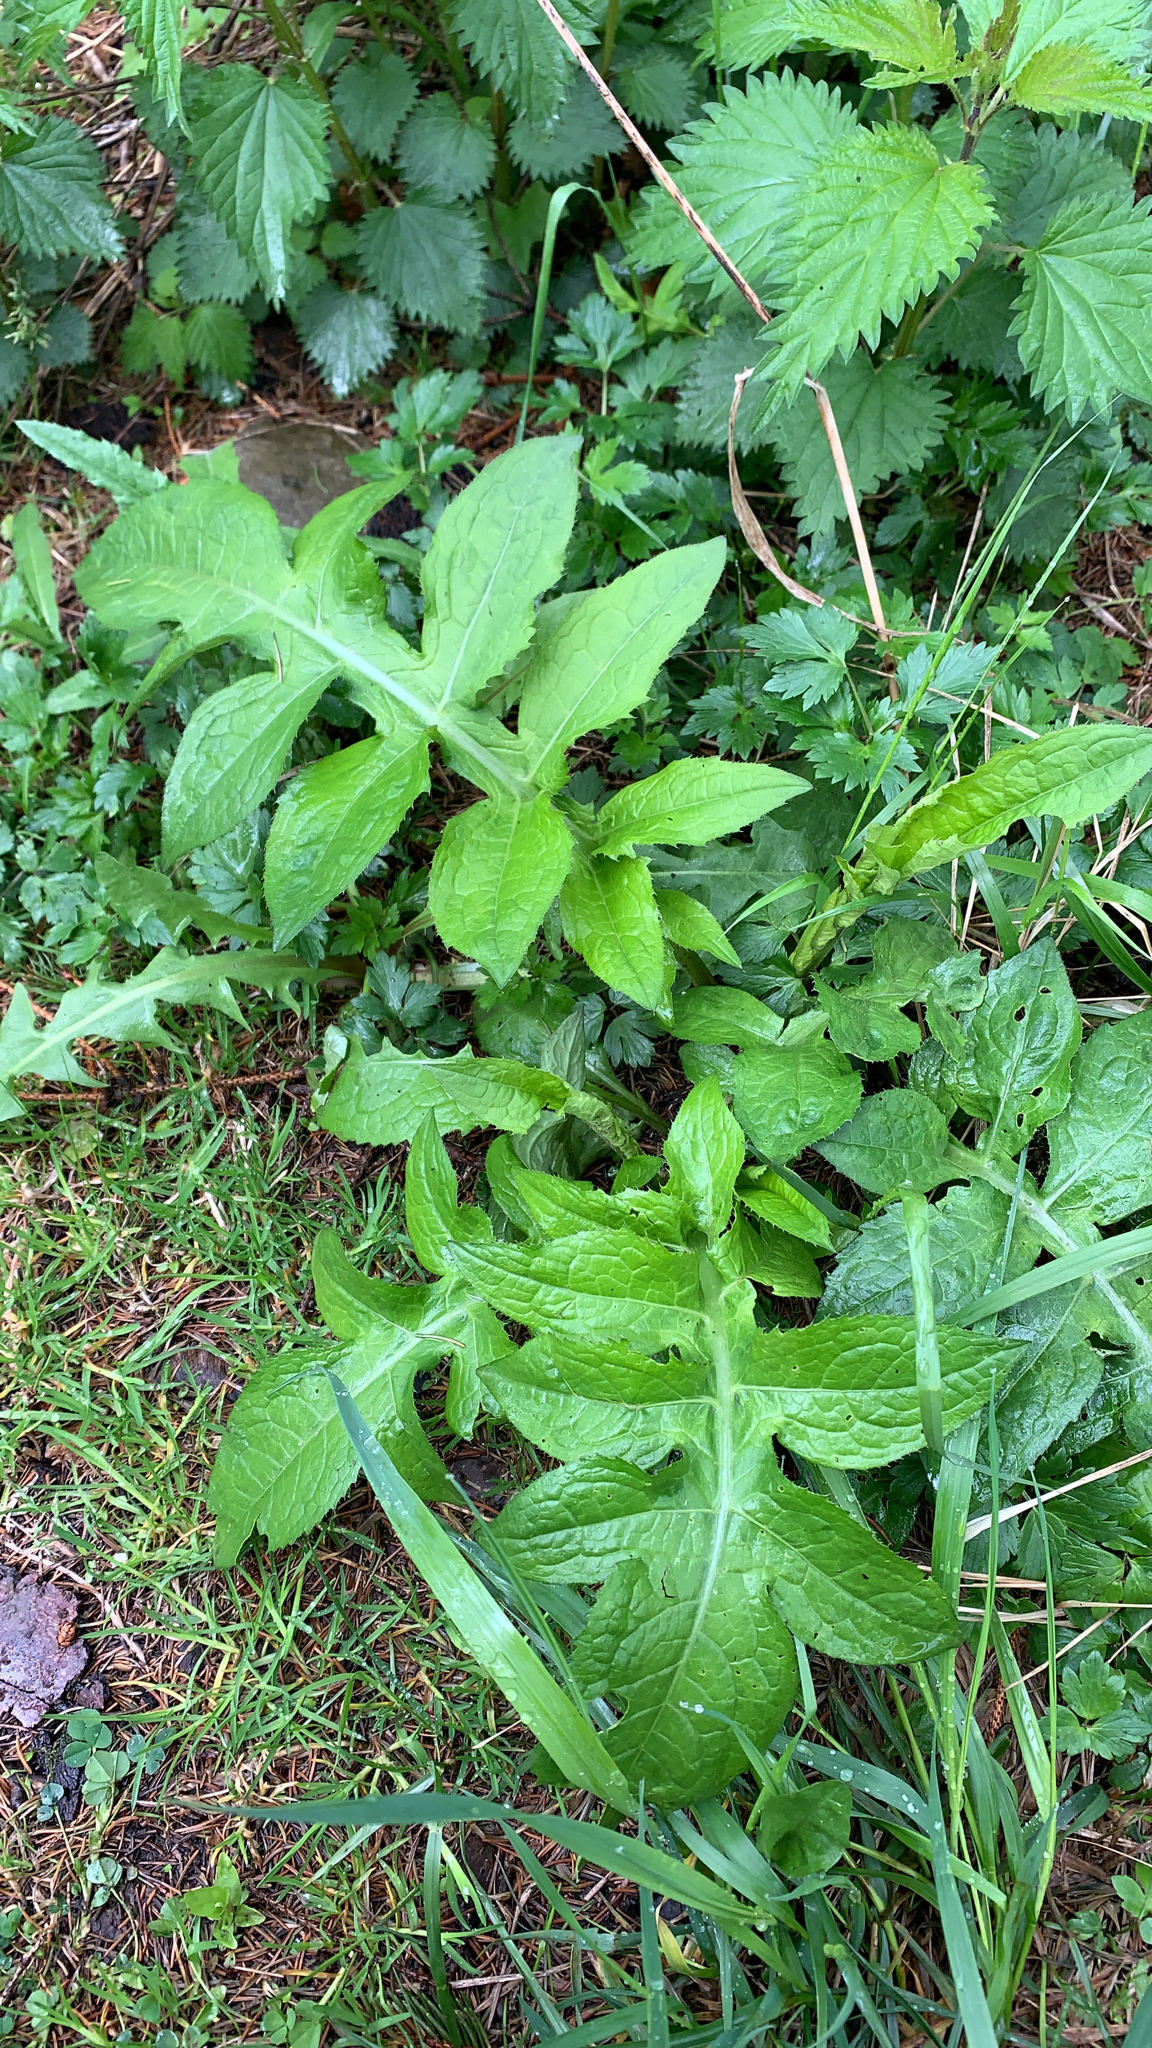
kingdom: Plantae
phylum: Tracheophyta
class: Magnoliopsida
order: Asterales
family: Asteraceae
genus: Cirsium
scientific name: Cirsium oleraceum
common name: Cabbage thistle
